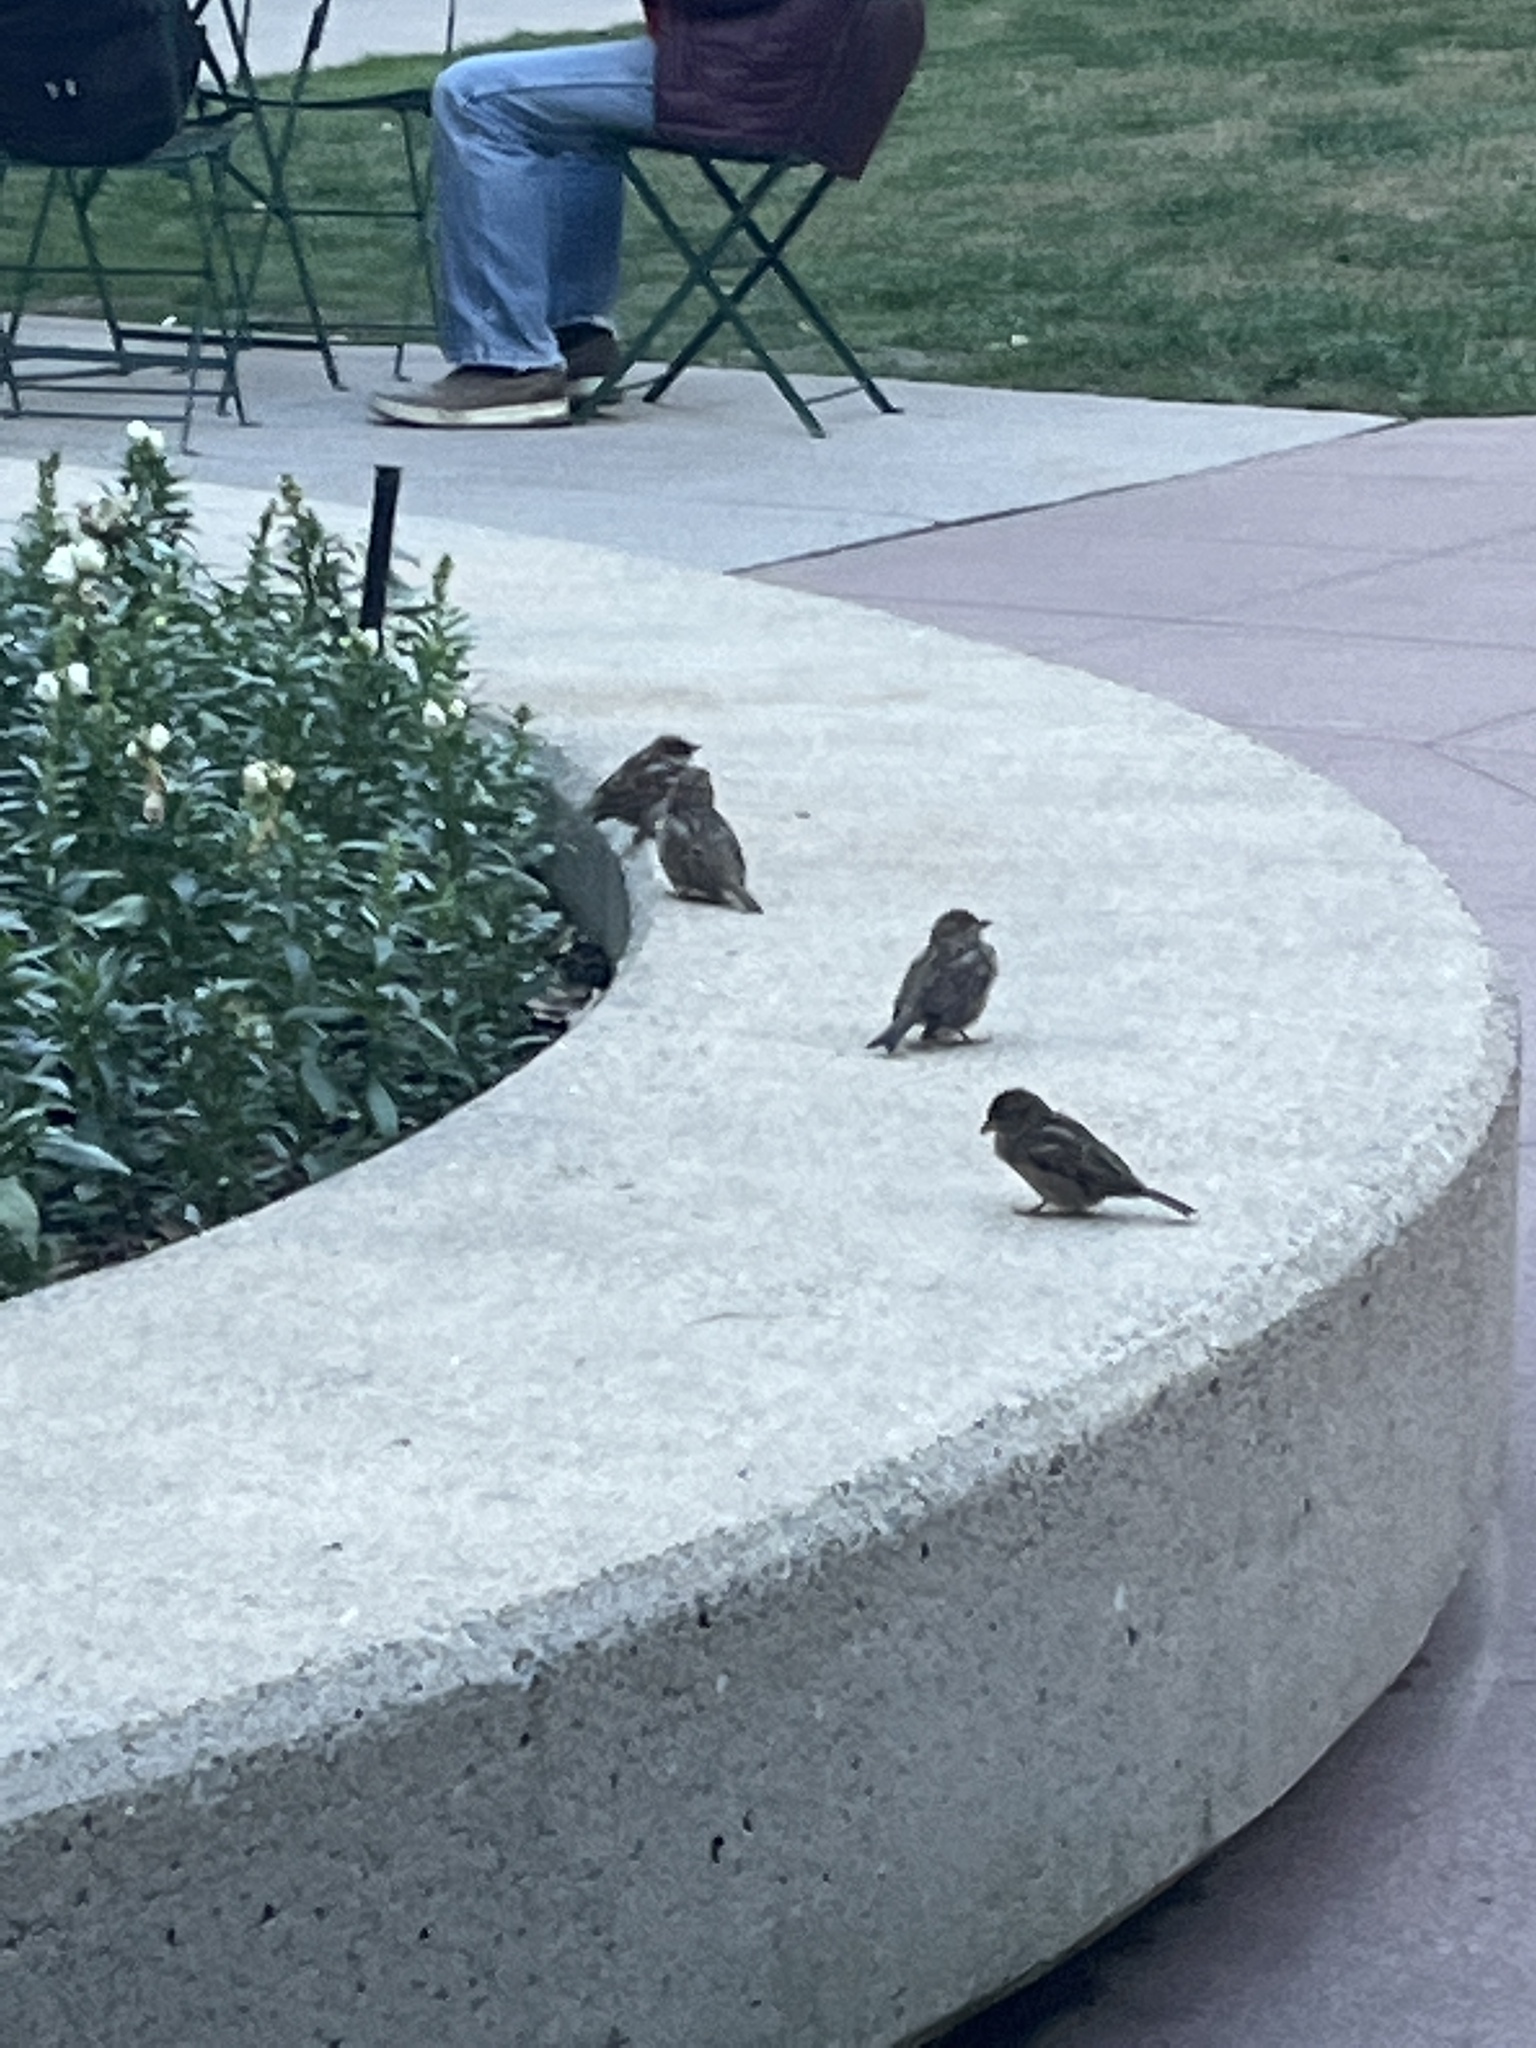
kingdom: Animalia
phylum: Chordata
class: Aves
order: Passeriformes
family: Passeridae
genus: Passer
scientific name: Passer domesticus
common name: House sparrow
